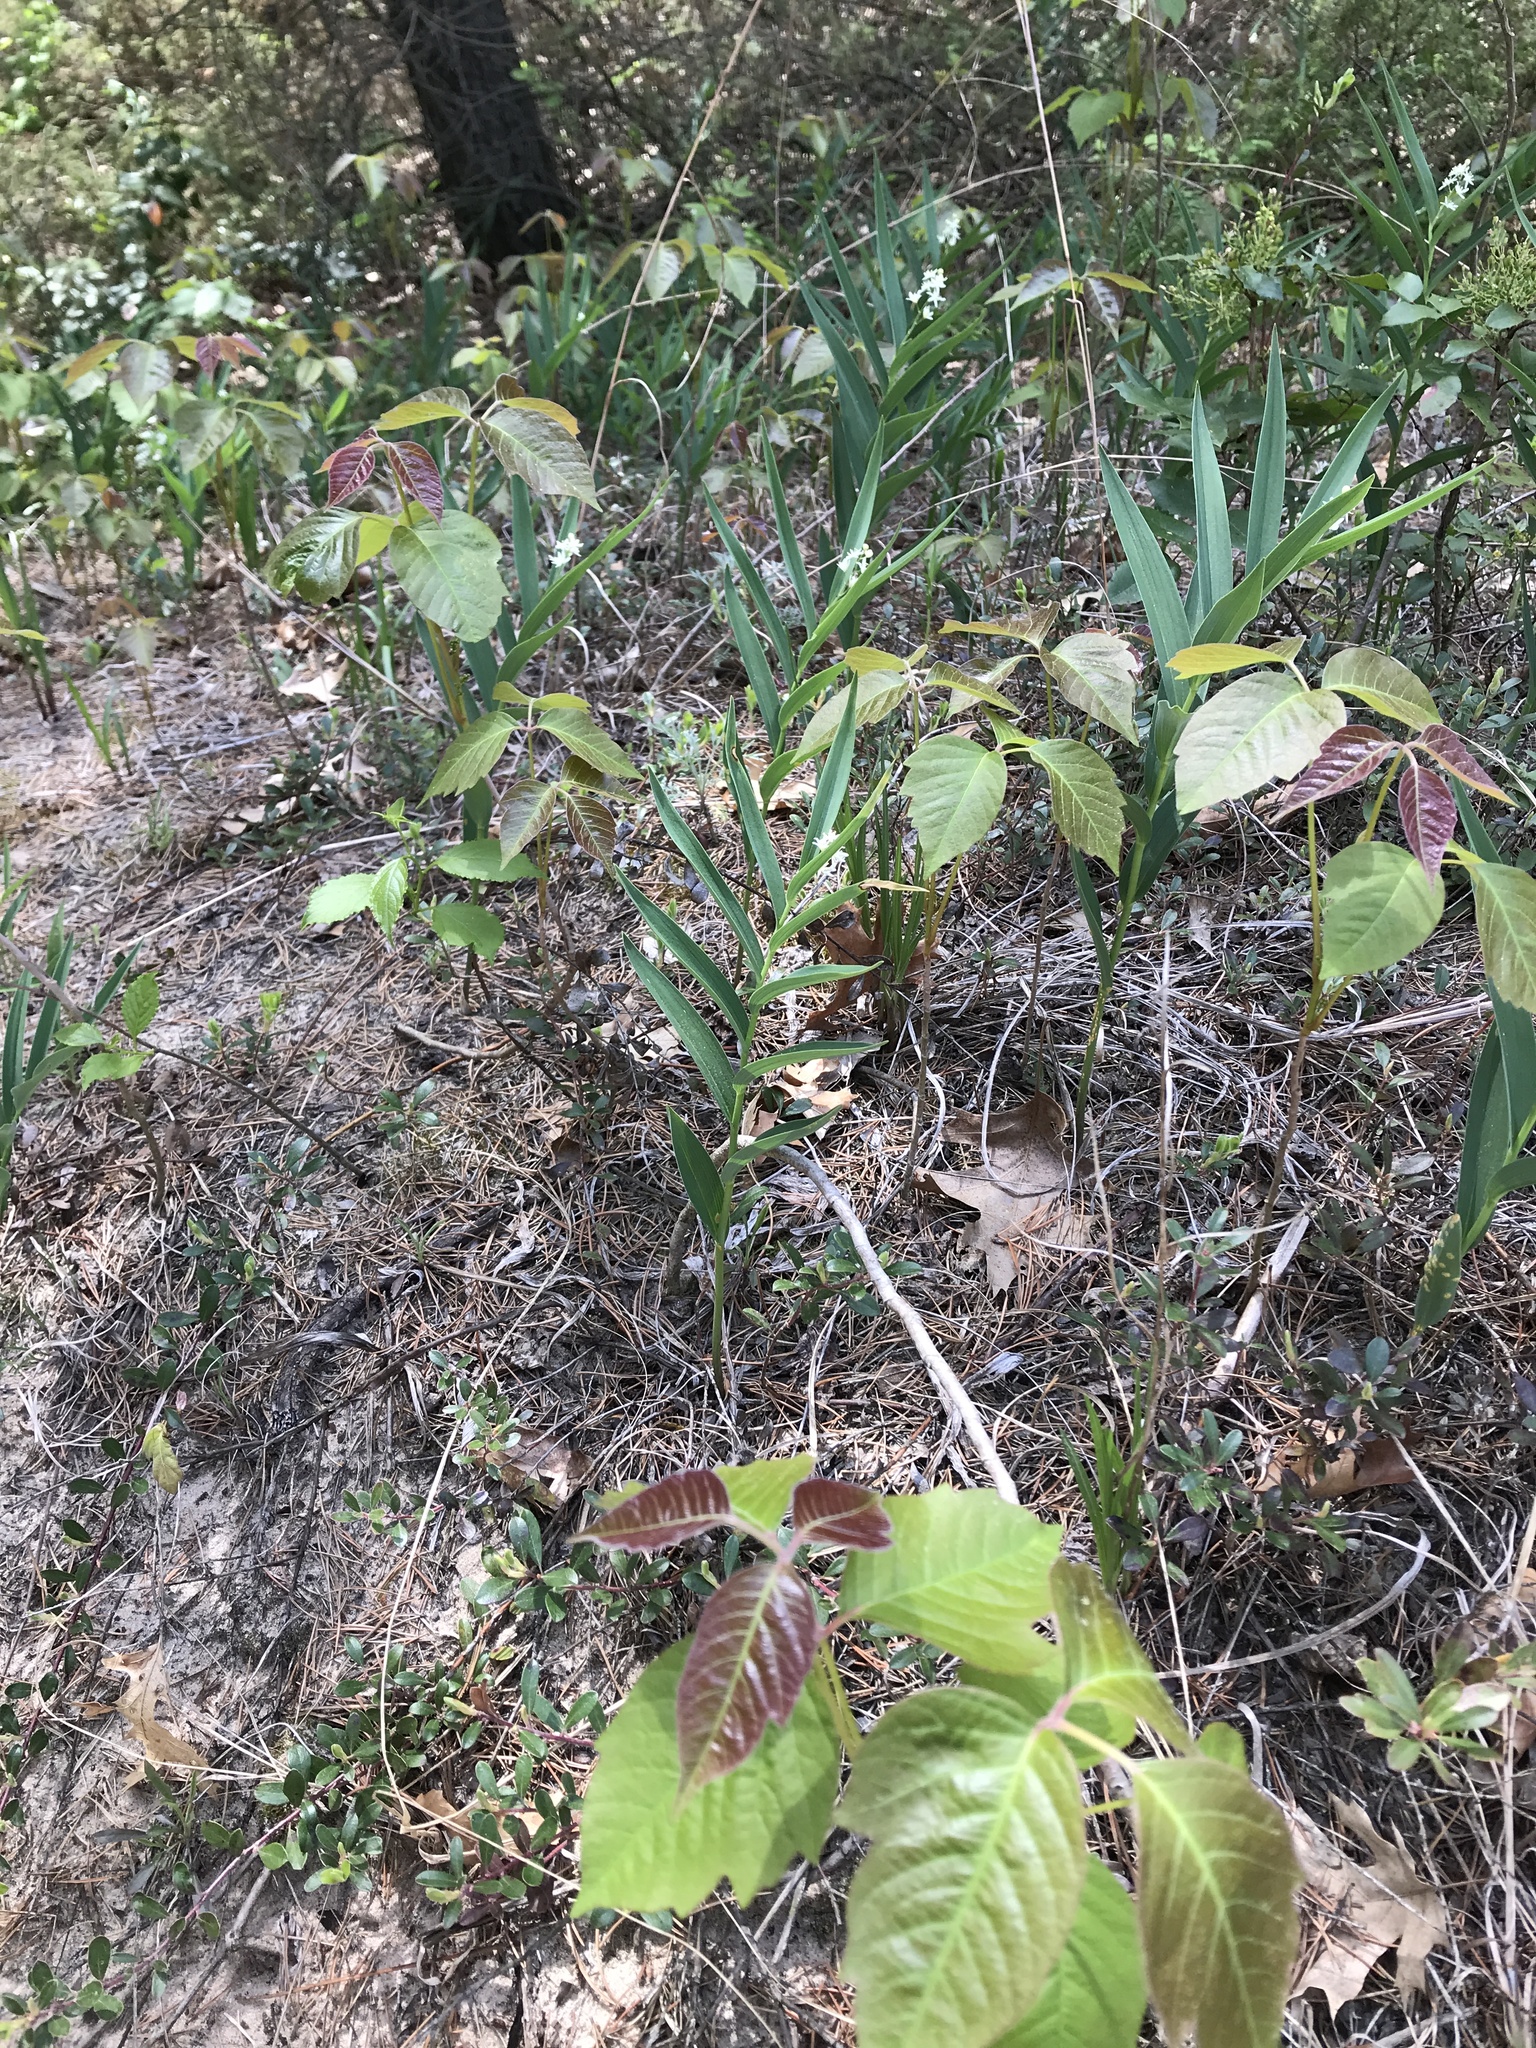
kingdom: Plantae
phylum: Tracheophyta
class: Magnoliopsida
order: Sapindales
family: Anacardiaceae
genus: Toxicodendron
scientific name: Toxicodendron radicans
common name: Poison ivy
